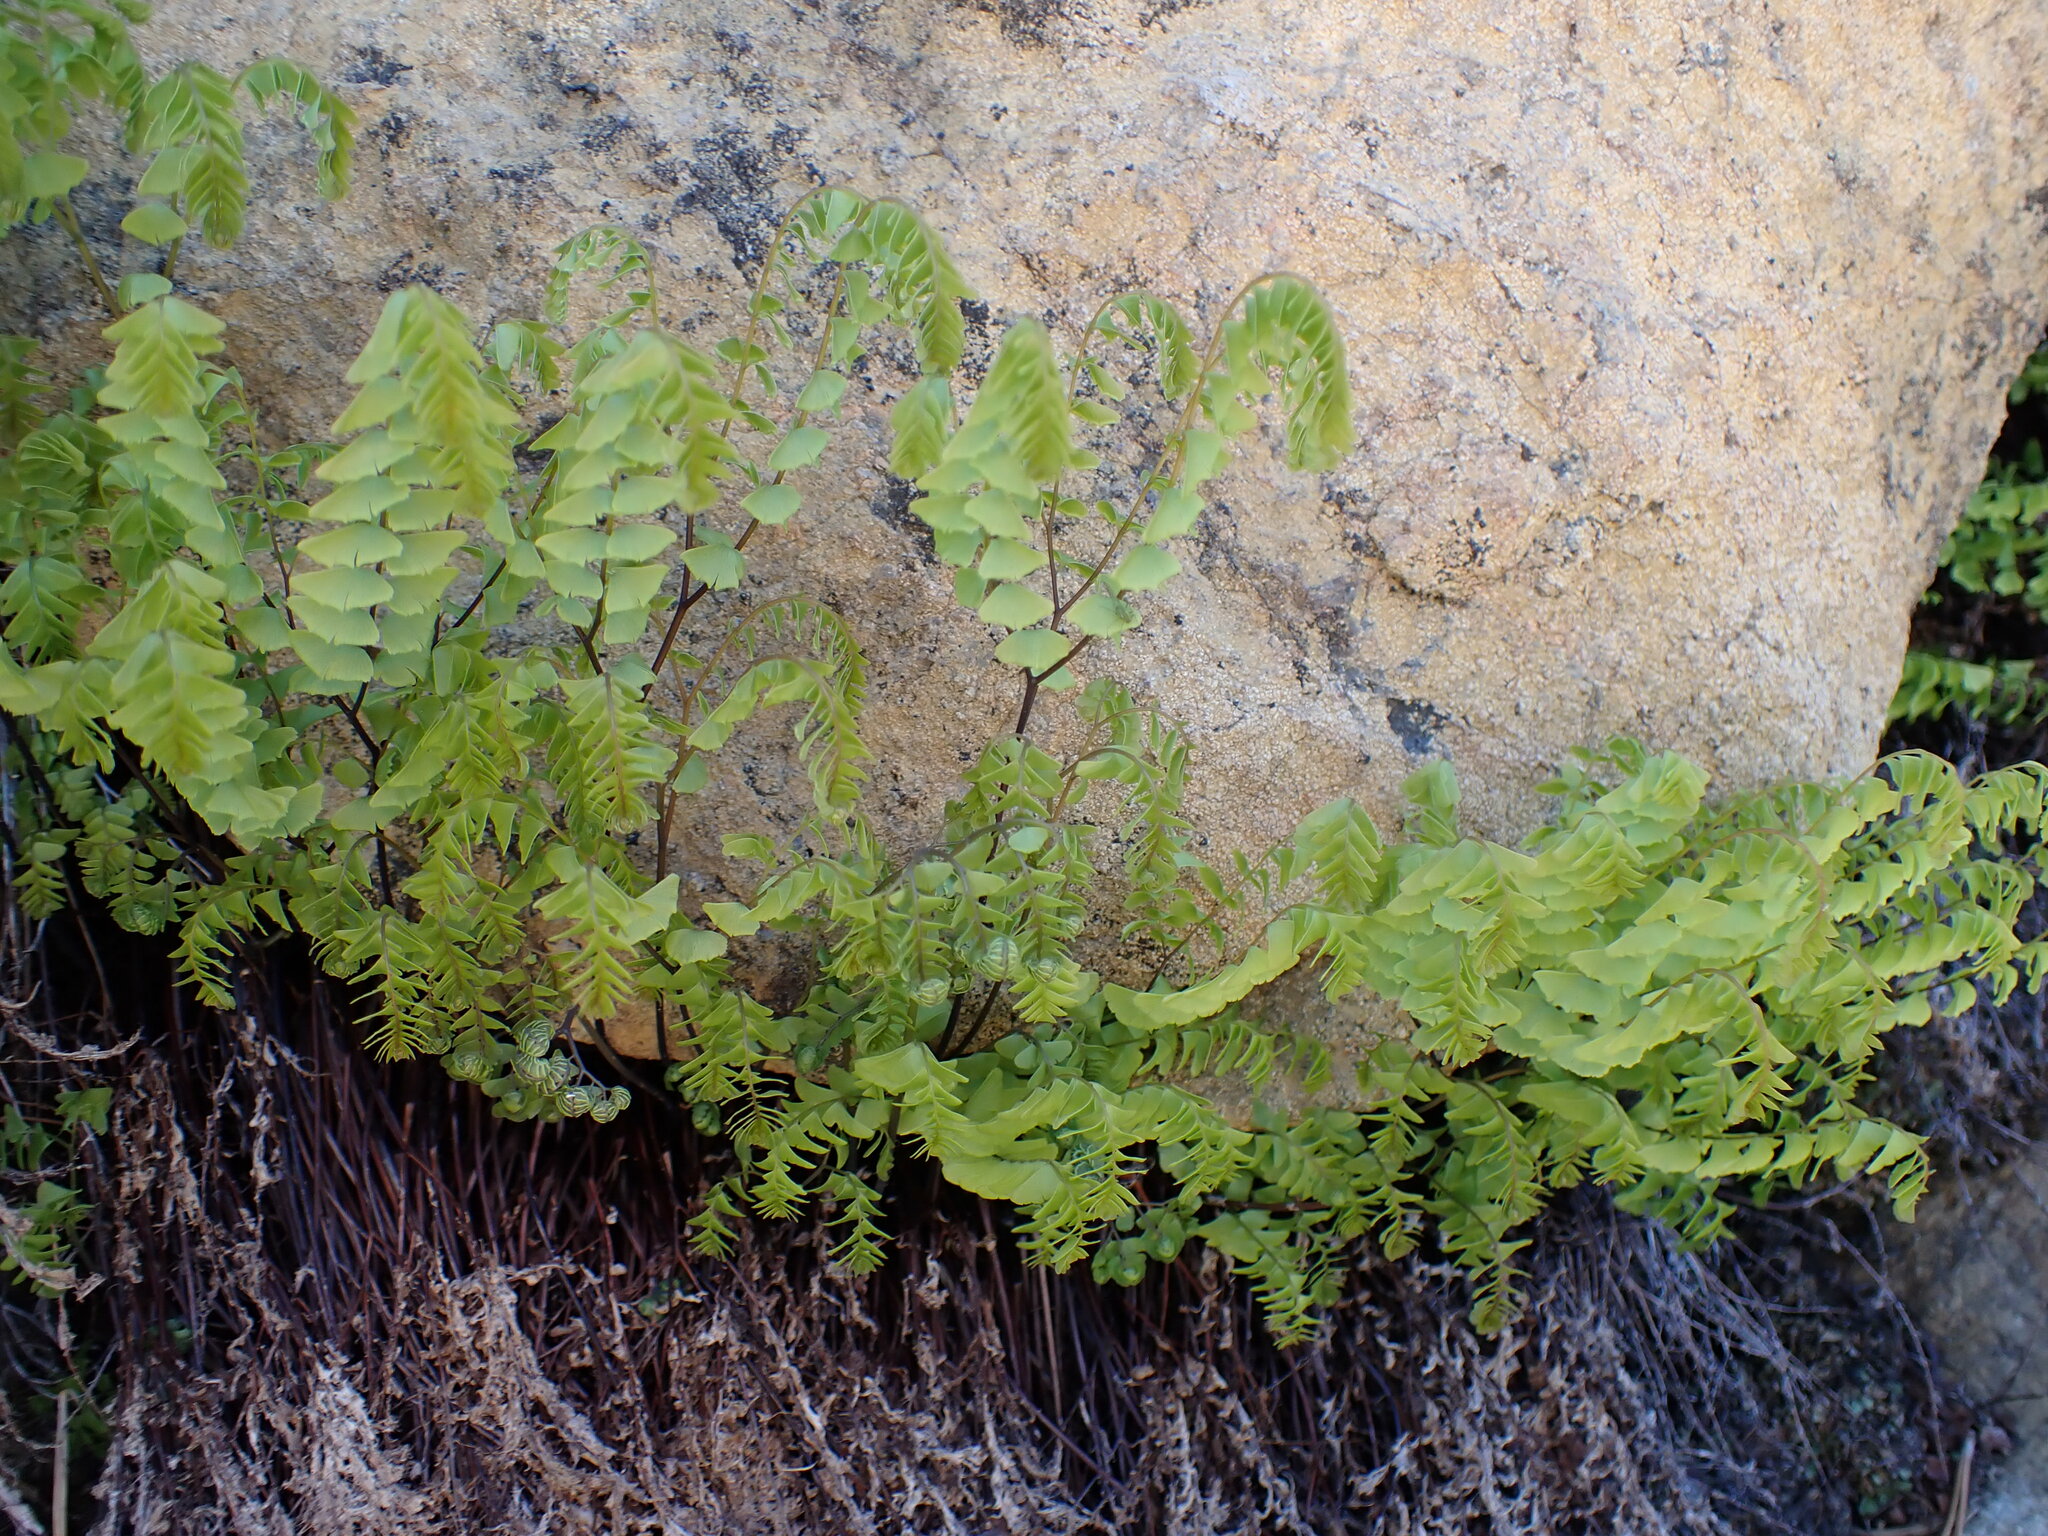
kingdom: Plantae
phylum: Tracheophyta
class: Polypodiopsida
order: Polypodiales
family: Pteridaceae
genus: Adiantum
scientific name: Adiantum aleuticum
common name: Aleutian maidenhair fern
